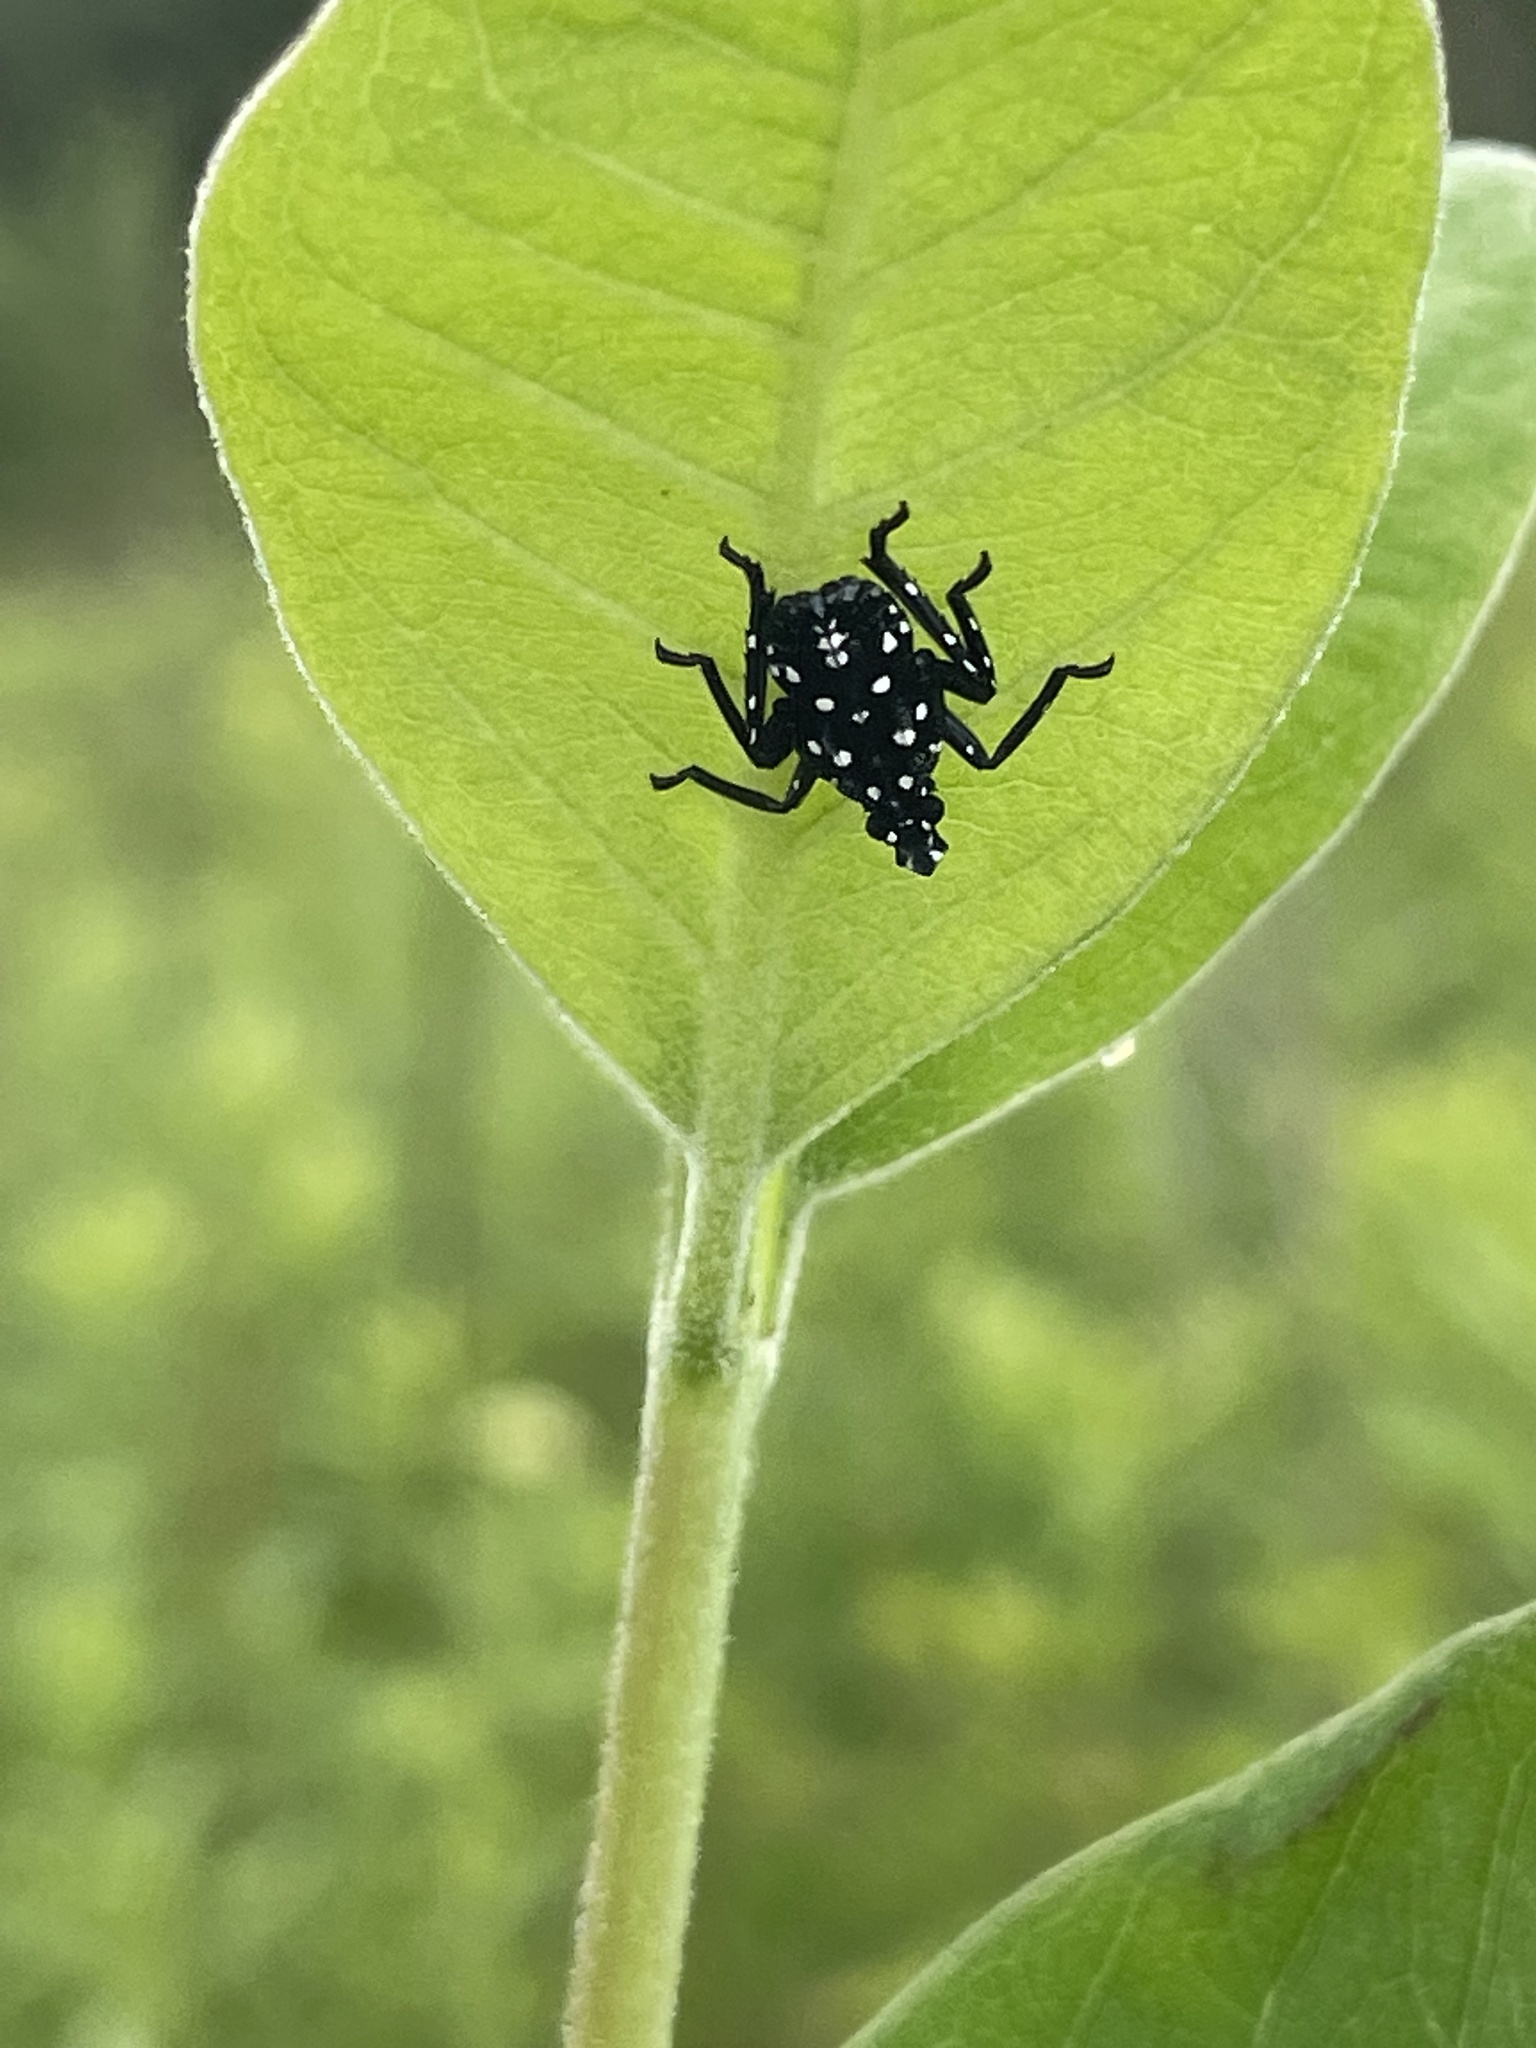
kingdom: Animalia
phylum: Arthropoda
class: Insecta
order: Hemiptera
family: Fulgoridae
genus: Lycorma
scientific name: Lycorma delicatula
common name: Spotted lanternfly
